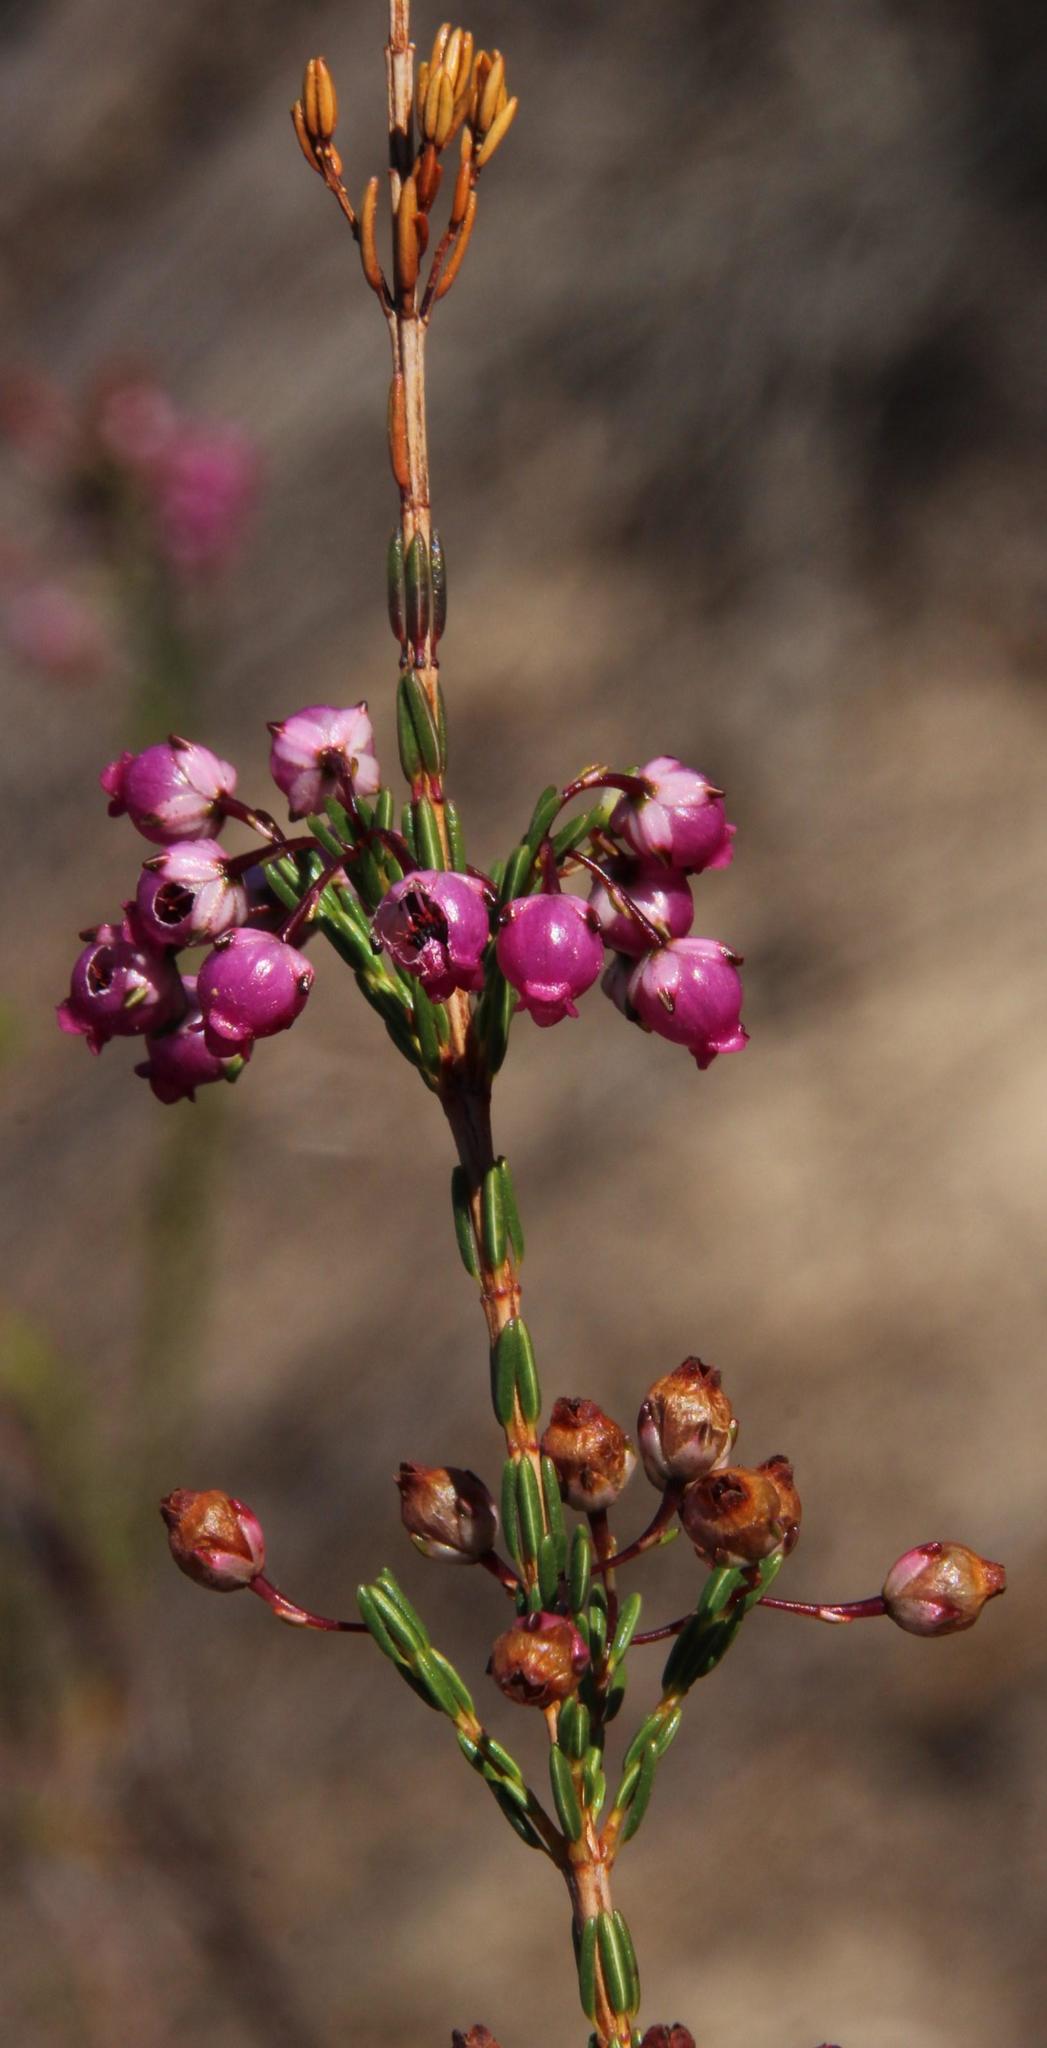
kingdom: Plantae
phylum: Tracheophyta
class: Magnoliopsida
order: Ericales
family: Ericaceae
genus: Erica
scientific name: Erica ferrea
